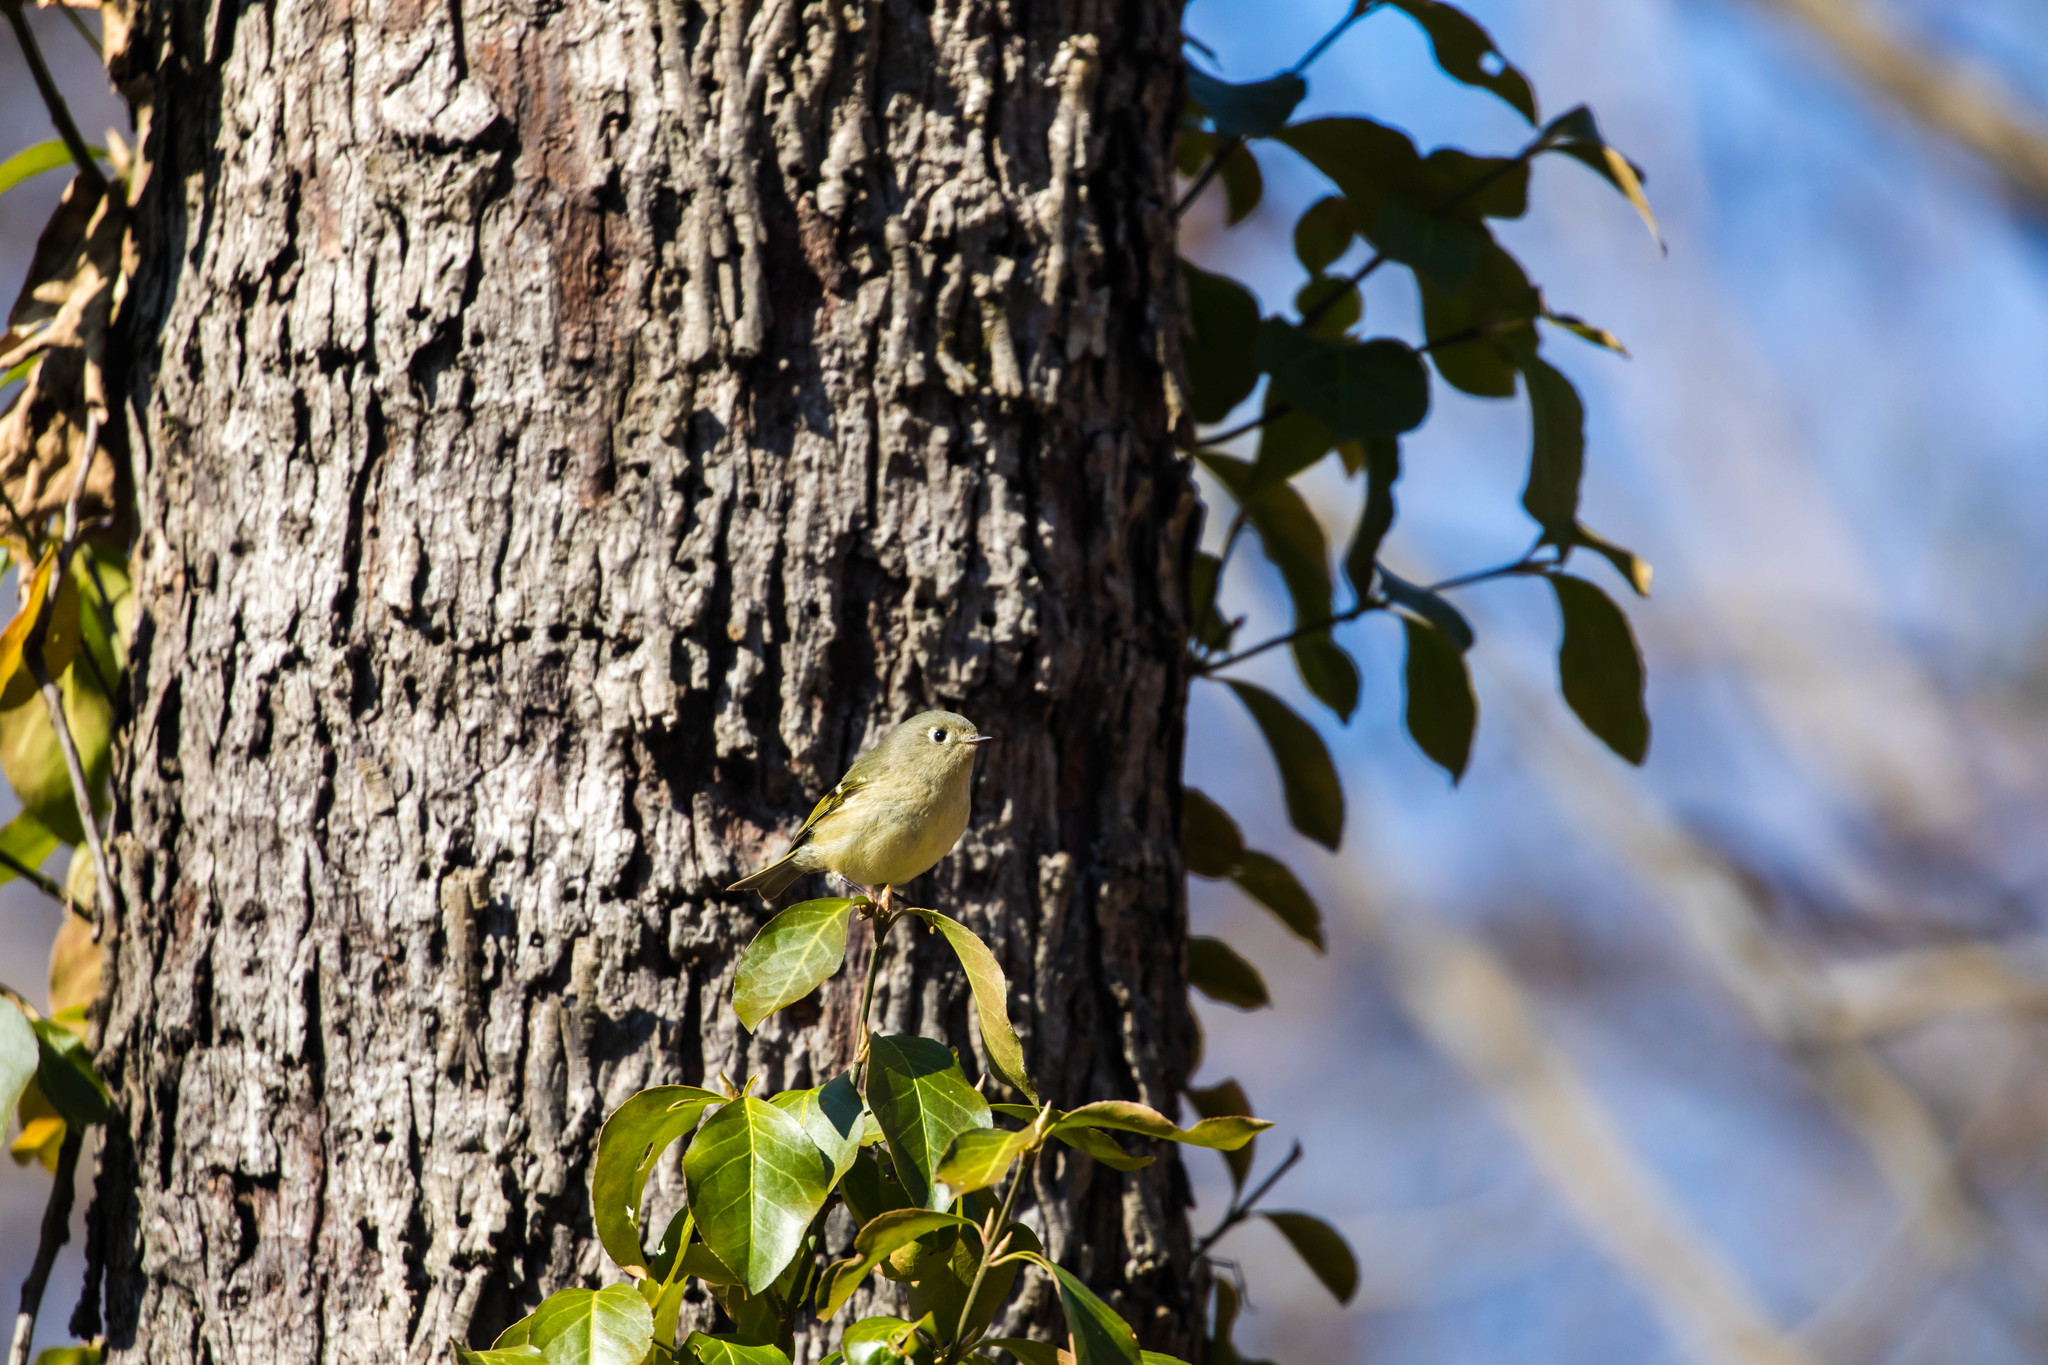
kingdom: Animalia
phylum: Chordata
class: Aves
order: Passeriformes
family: Regulidae
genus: Regulus
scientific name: Regulus calendula
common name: Ruby-crowned kinglet
